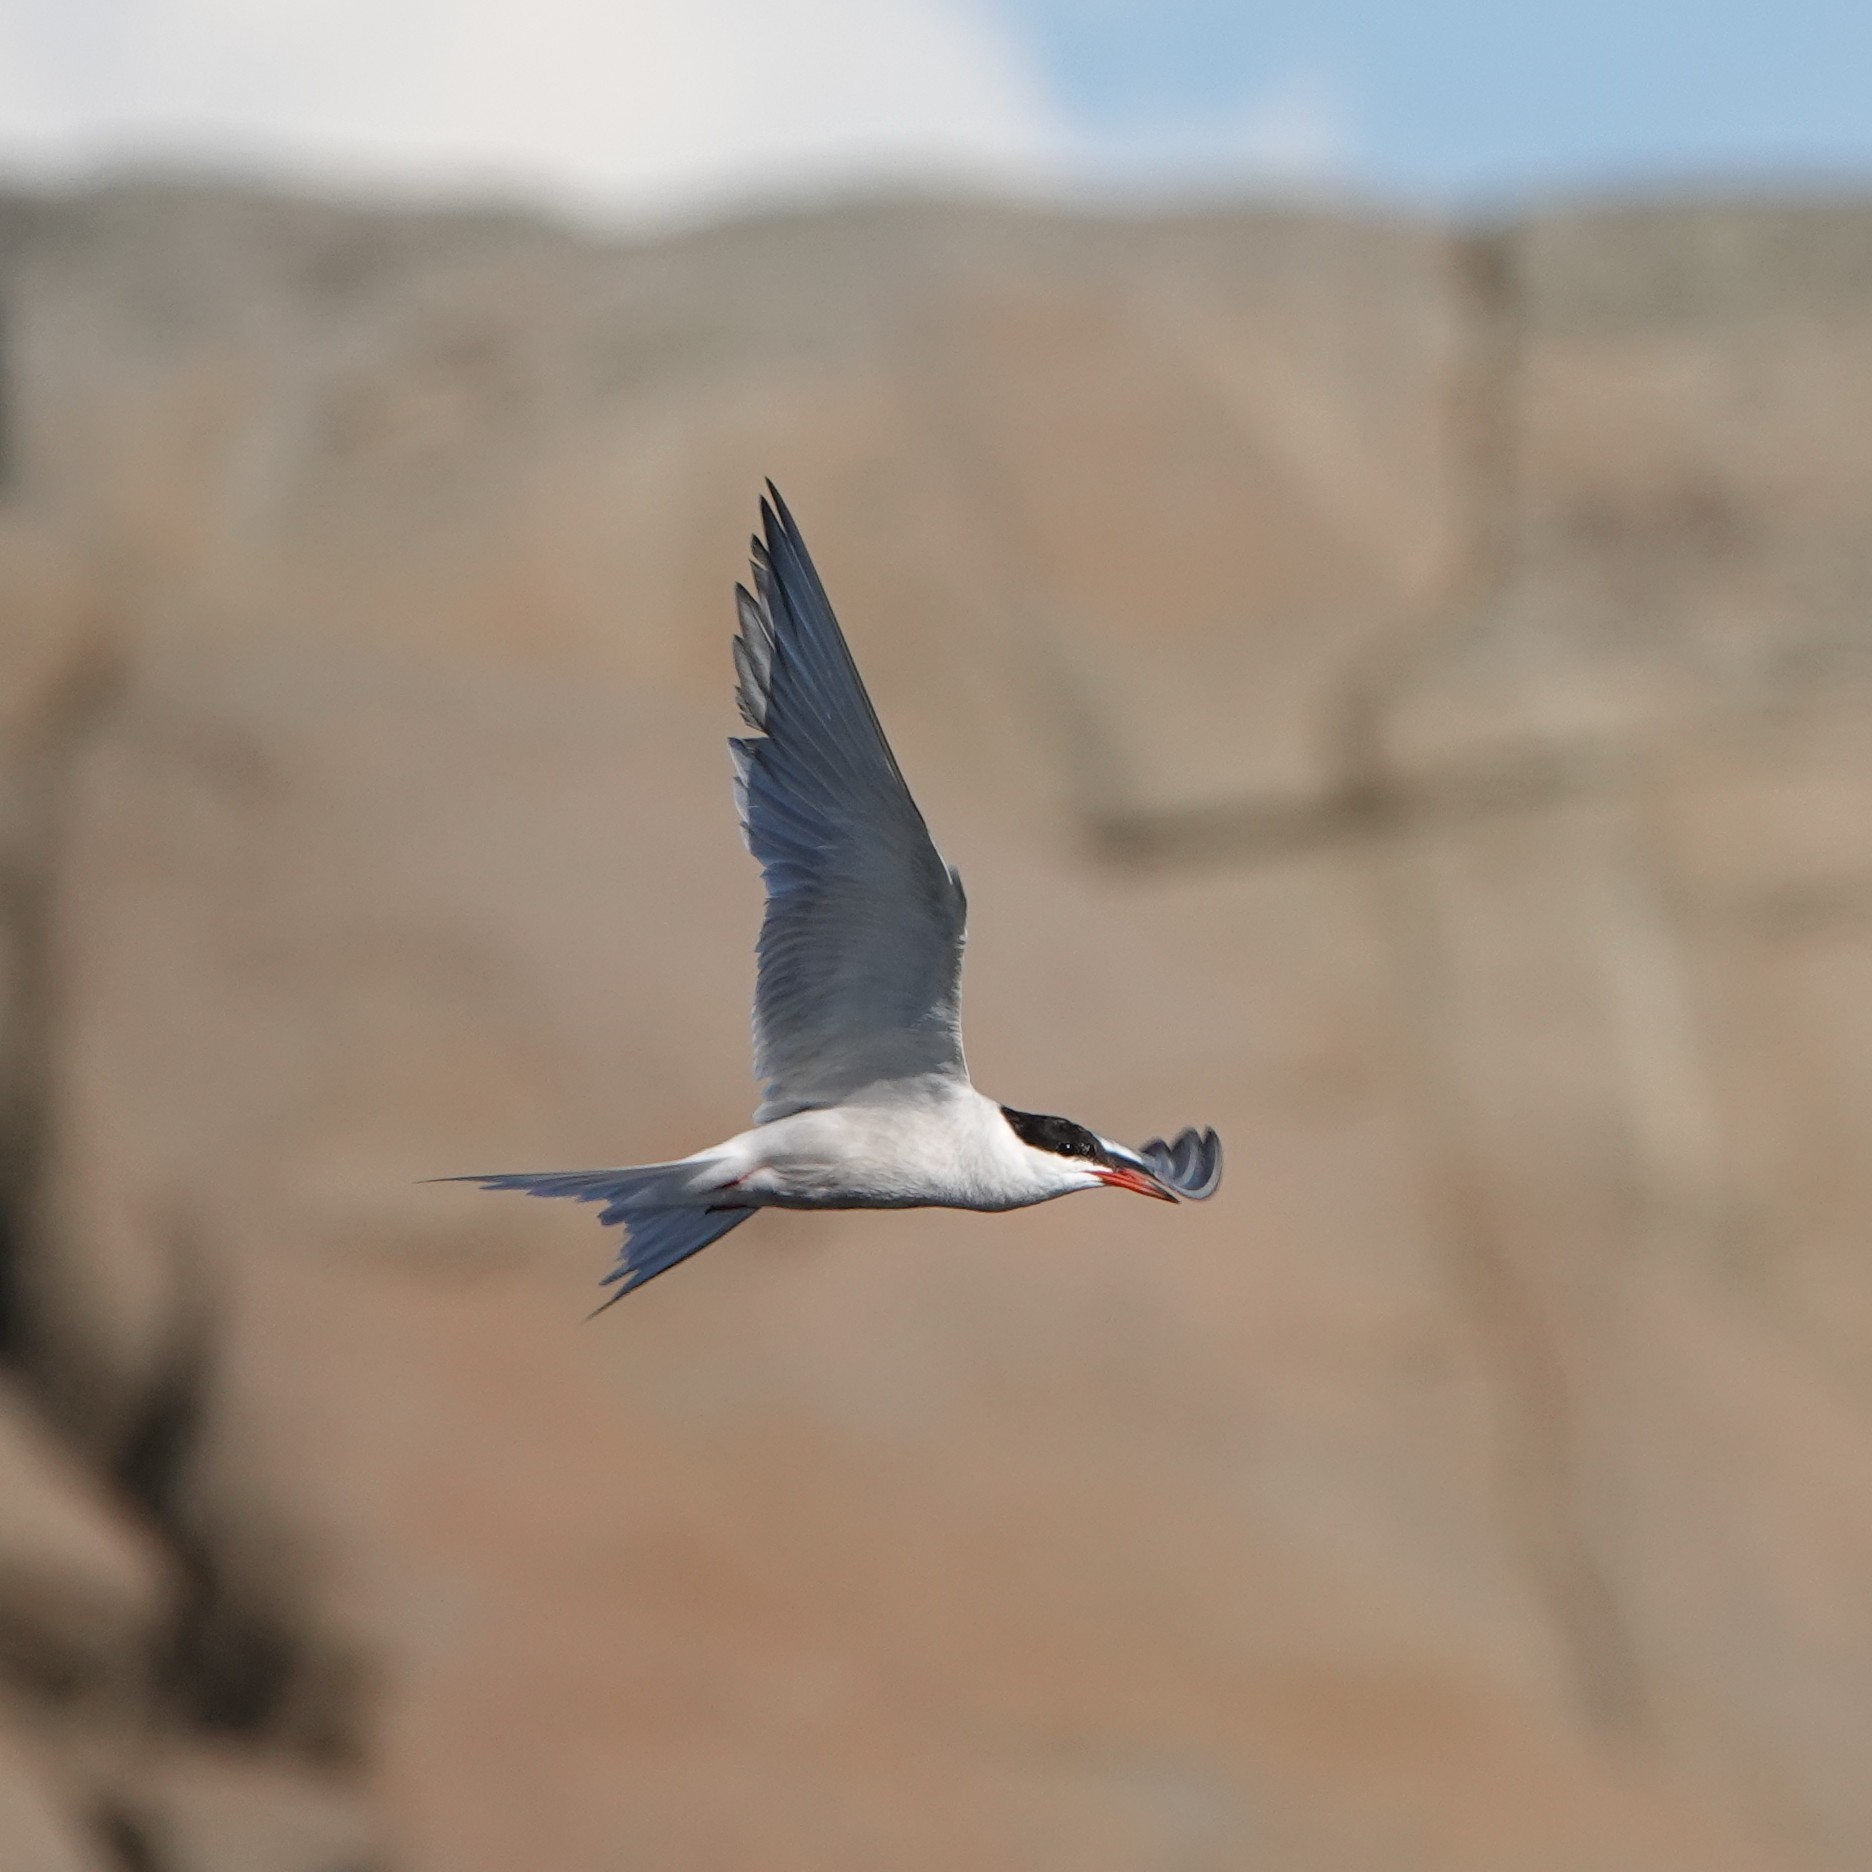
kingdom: Animalia
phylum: Chordata
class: Aves
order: Charadriiformes
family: Laridae
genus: Sterna
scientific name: Sterna hirundo
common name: Common tern
